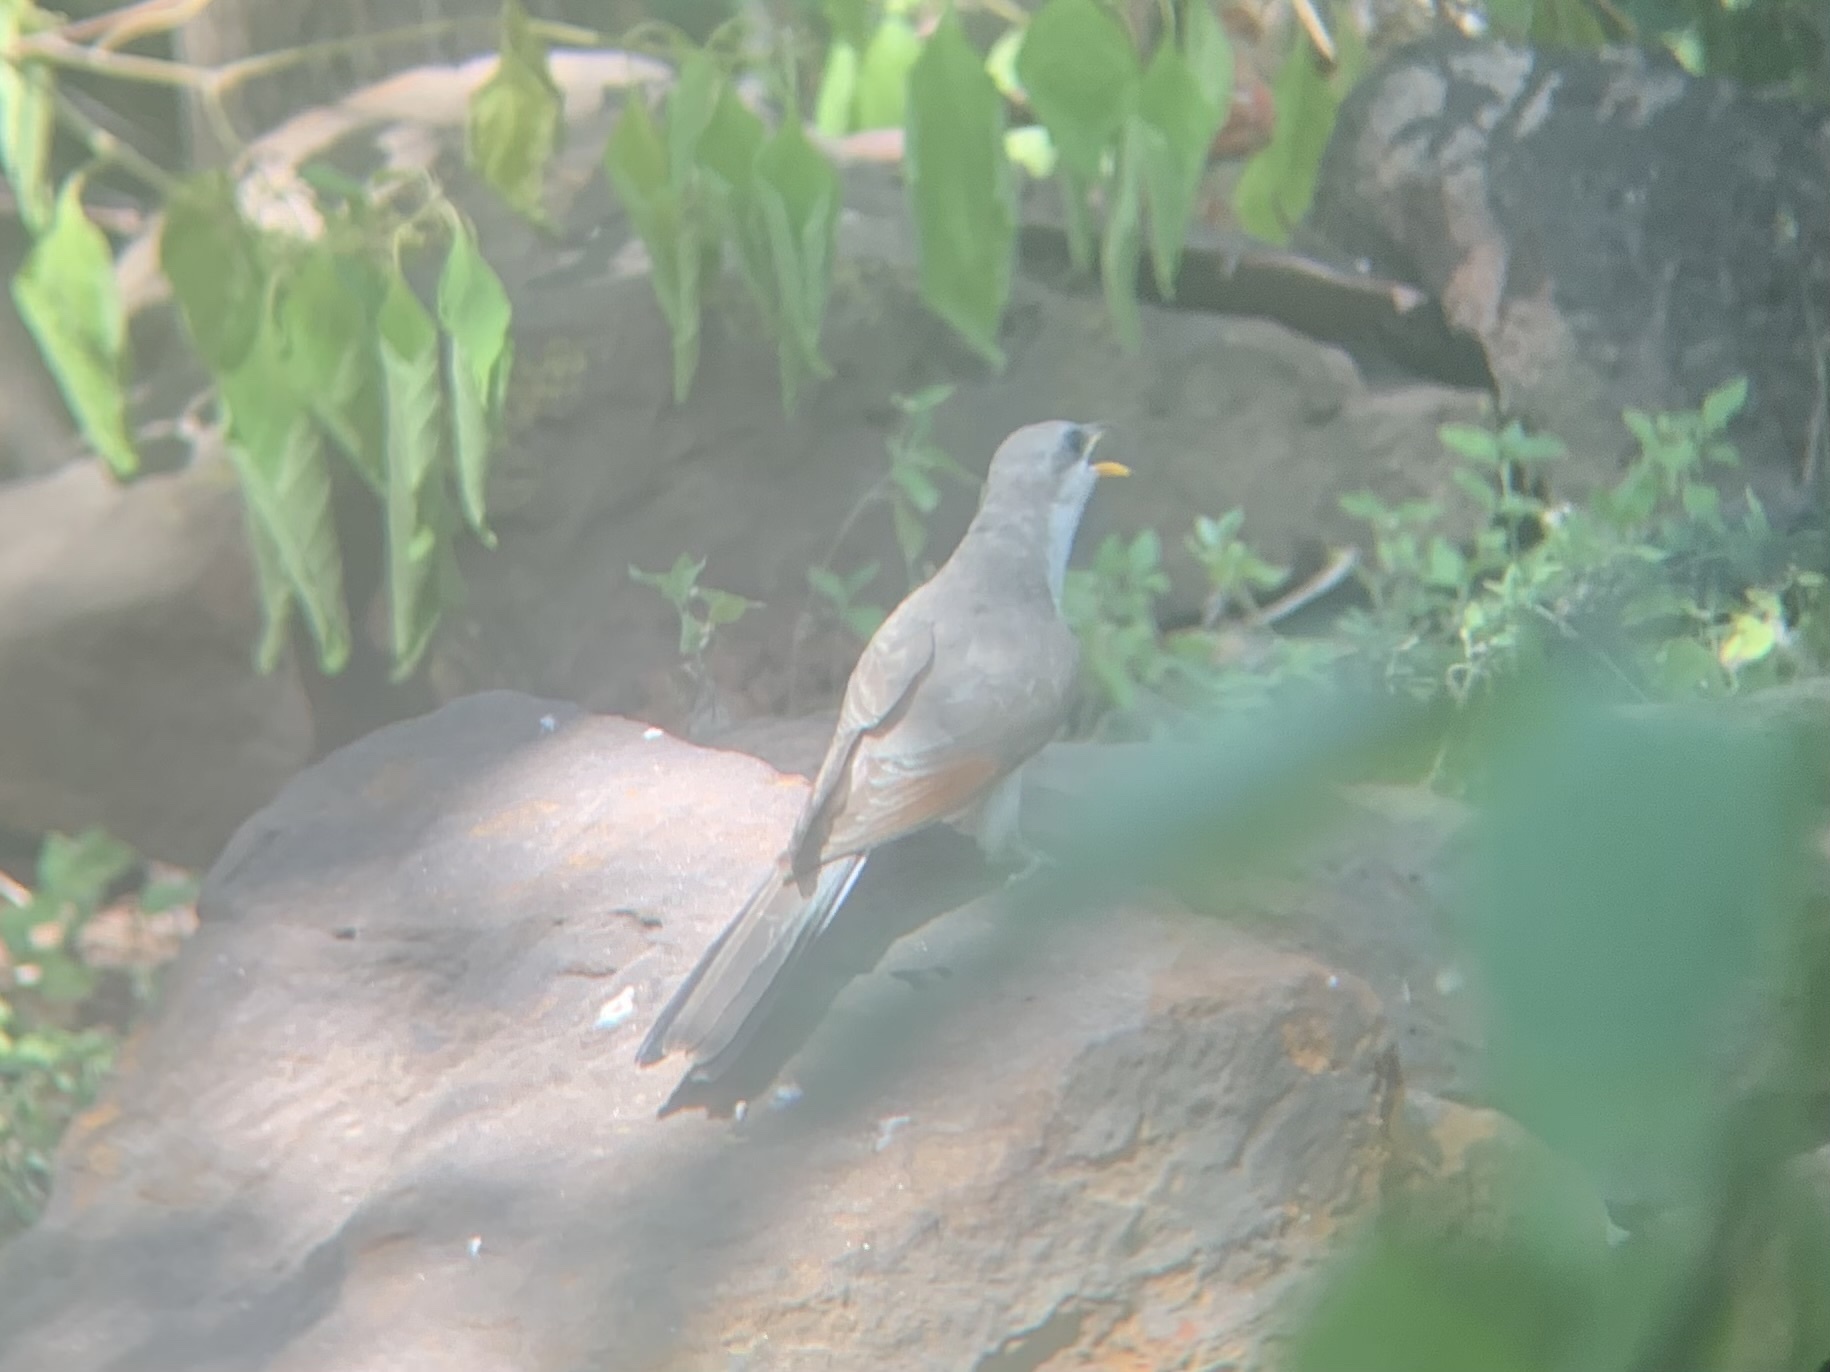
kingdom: Animalia
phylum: Chordata
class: Aves
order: Cuculiformes
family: Cuculidae
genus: Coccyzus
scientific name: Coccyzus americanus
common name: Yellow-billed cuckoo
